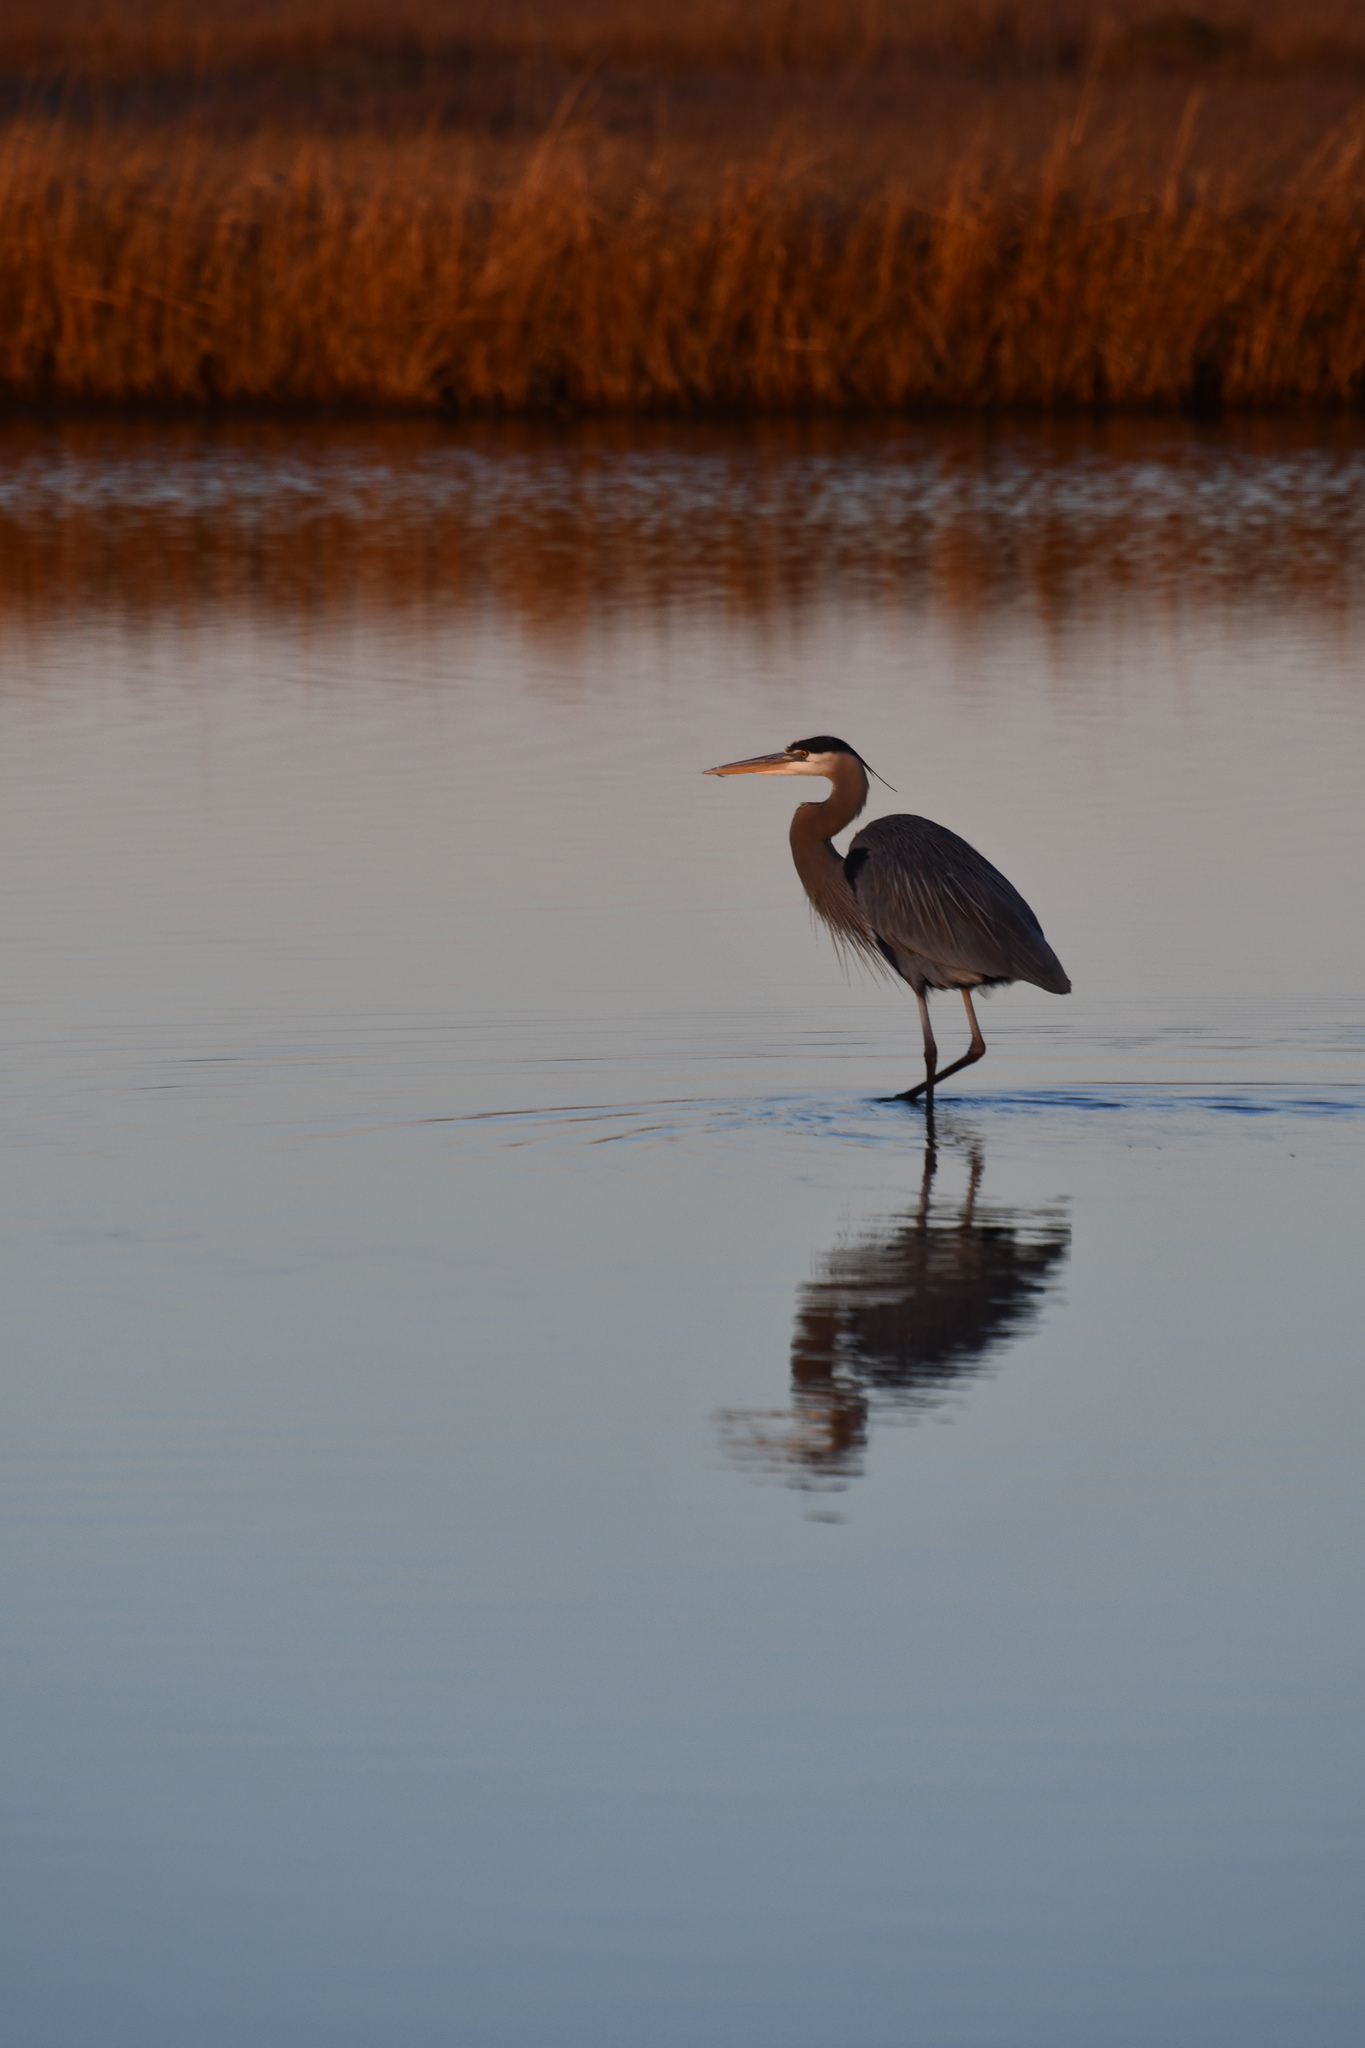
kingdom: Animalia
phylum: Chordata
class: Aves
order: Pelecaniformes
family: Ardeidae
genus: Ardea
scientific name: Ardea herodias
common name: Great blue heron
